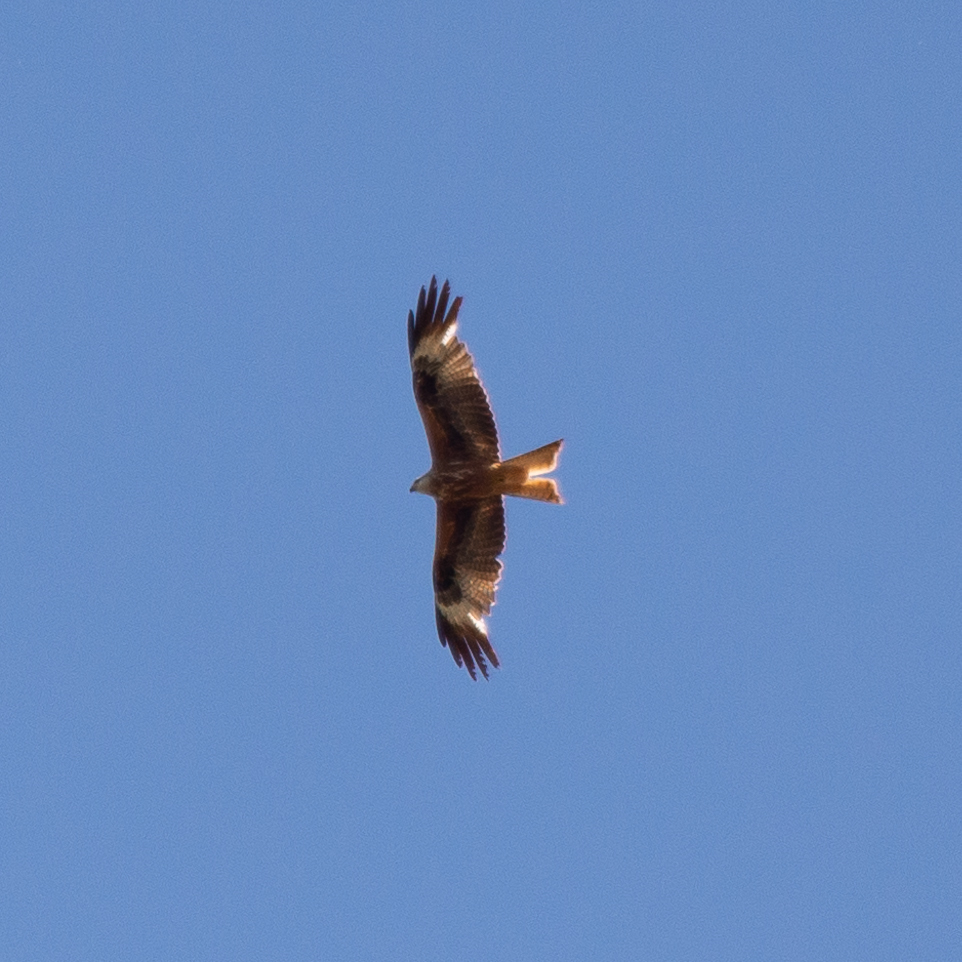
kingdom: Animalia
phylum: Chordata
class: Aves
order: Accipitriformes
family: Accipitridae
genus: Milvus
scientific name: Milvus milvus
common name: Red kite
